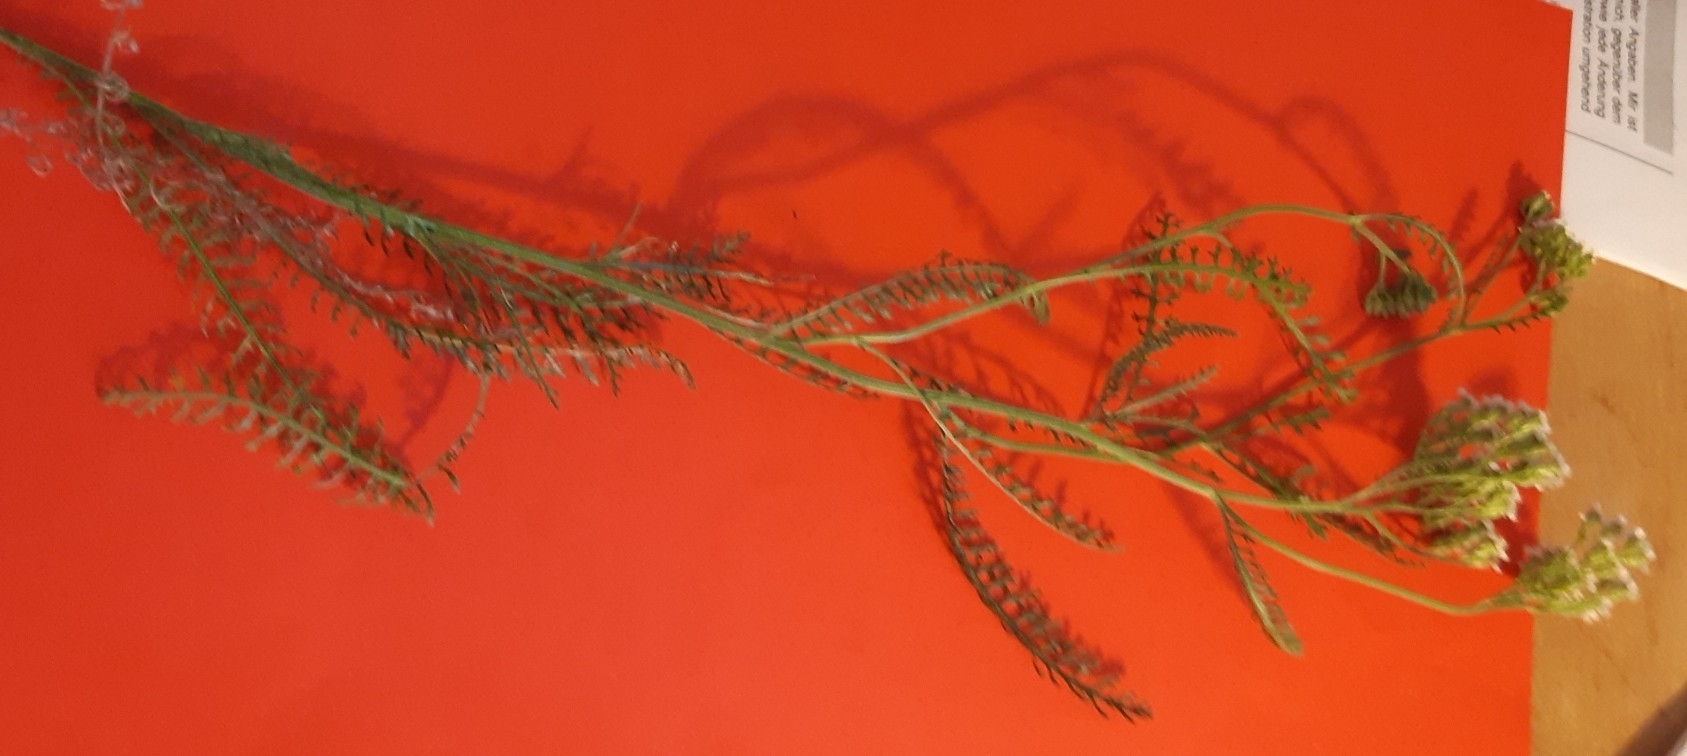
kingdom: Plantae
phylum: Tracheophyta
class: Magnoliopsida
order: Asterales
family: Asteraceae
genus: Achillea
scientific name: Achillea millefolium
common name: Yarrow
